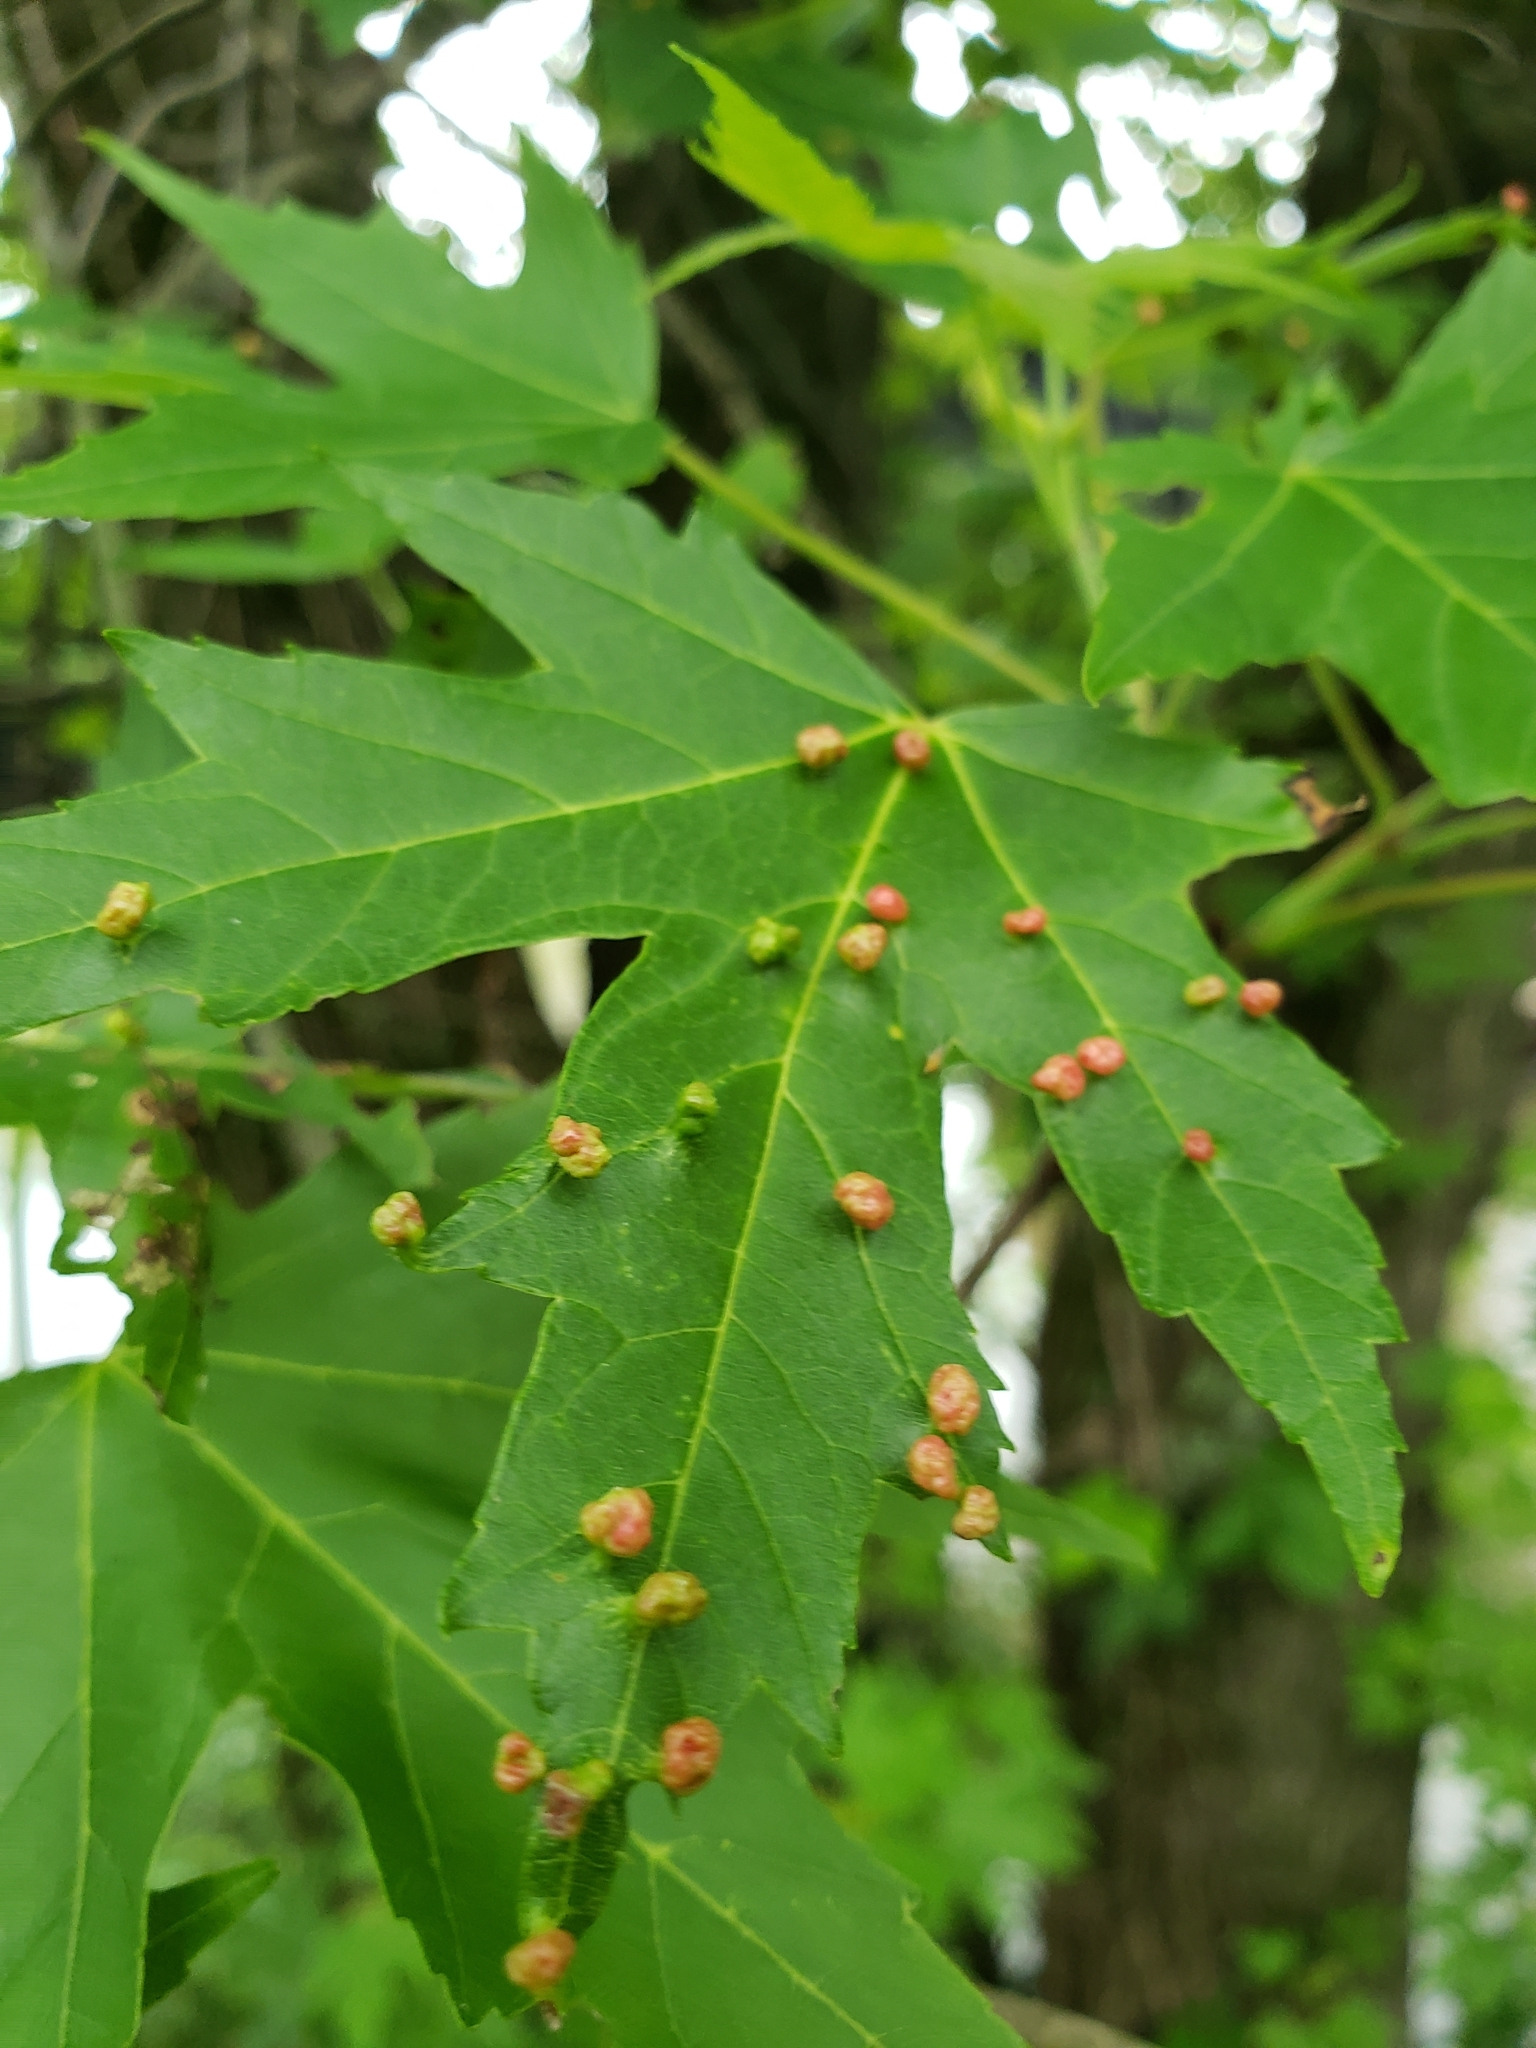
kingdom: Animalia
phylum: Arthropoda
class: Arachnida
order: Trombidiformes
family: Eriophyidae
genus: Vasates
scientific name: Vasates quadripedes
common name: Maple bladder gall mite
